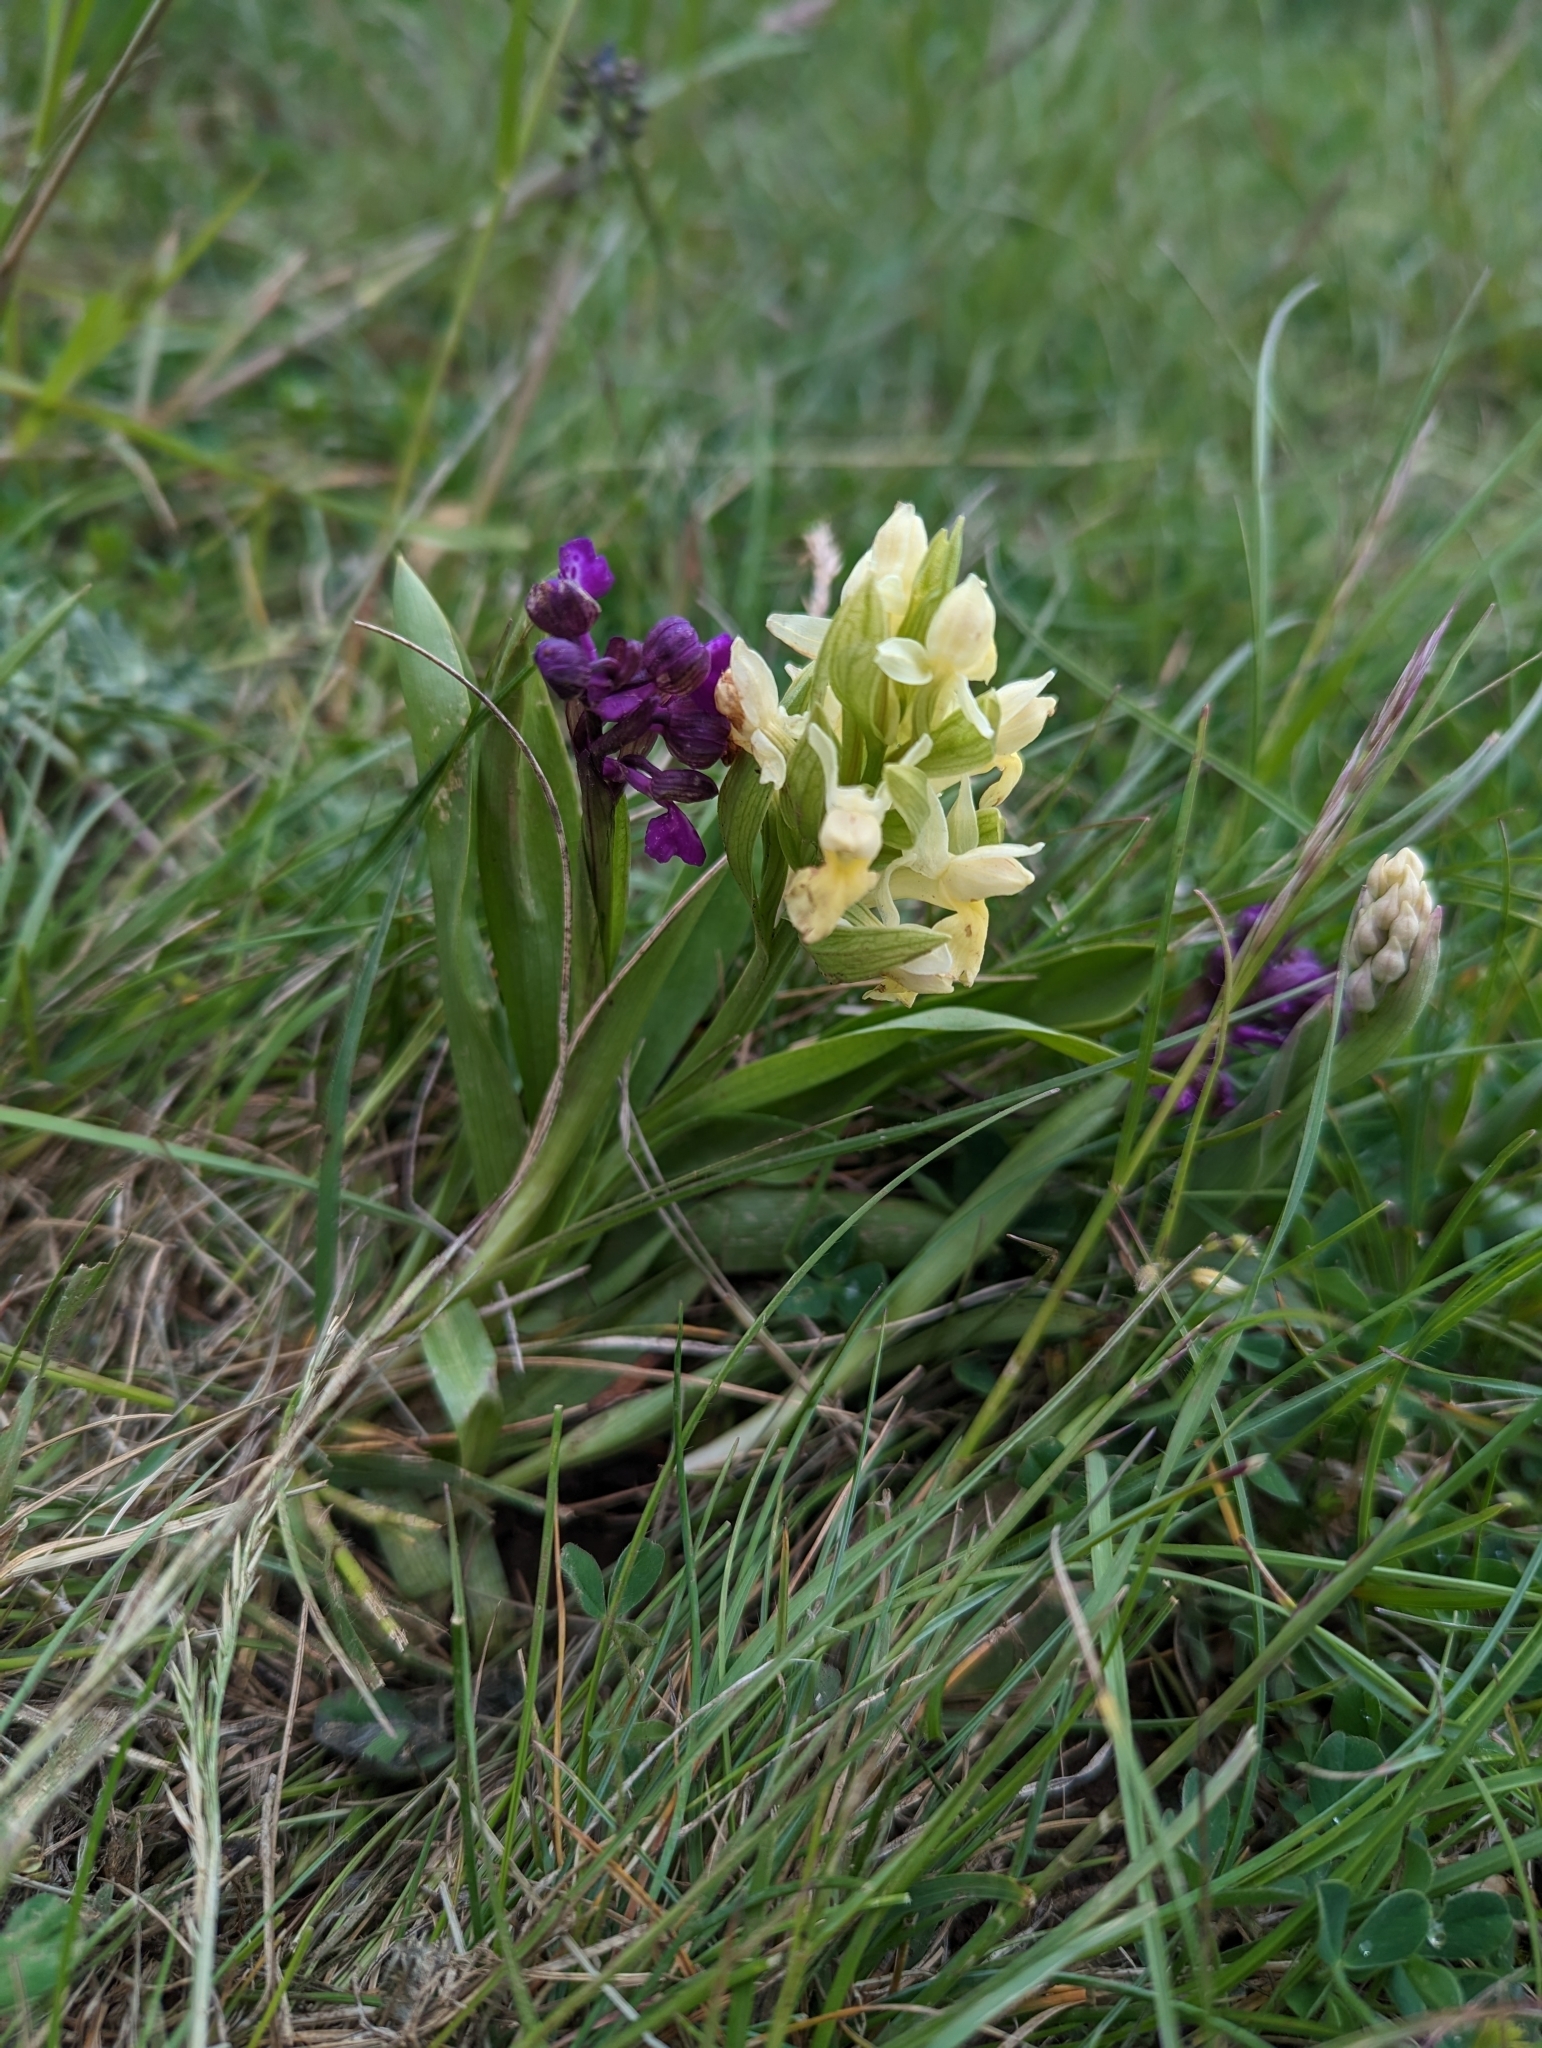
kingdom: Plantae
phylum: Tracheophyta
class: Liliopsida
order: Asparagales
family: Orchidaceae
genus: Dactylorhiza
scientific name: Dactylorhiza sambucina
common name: Elder-flowered orchid
